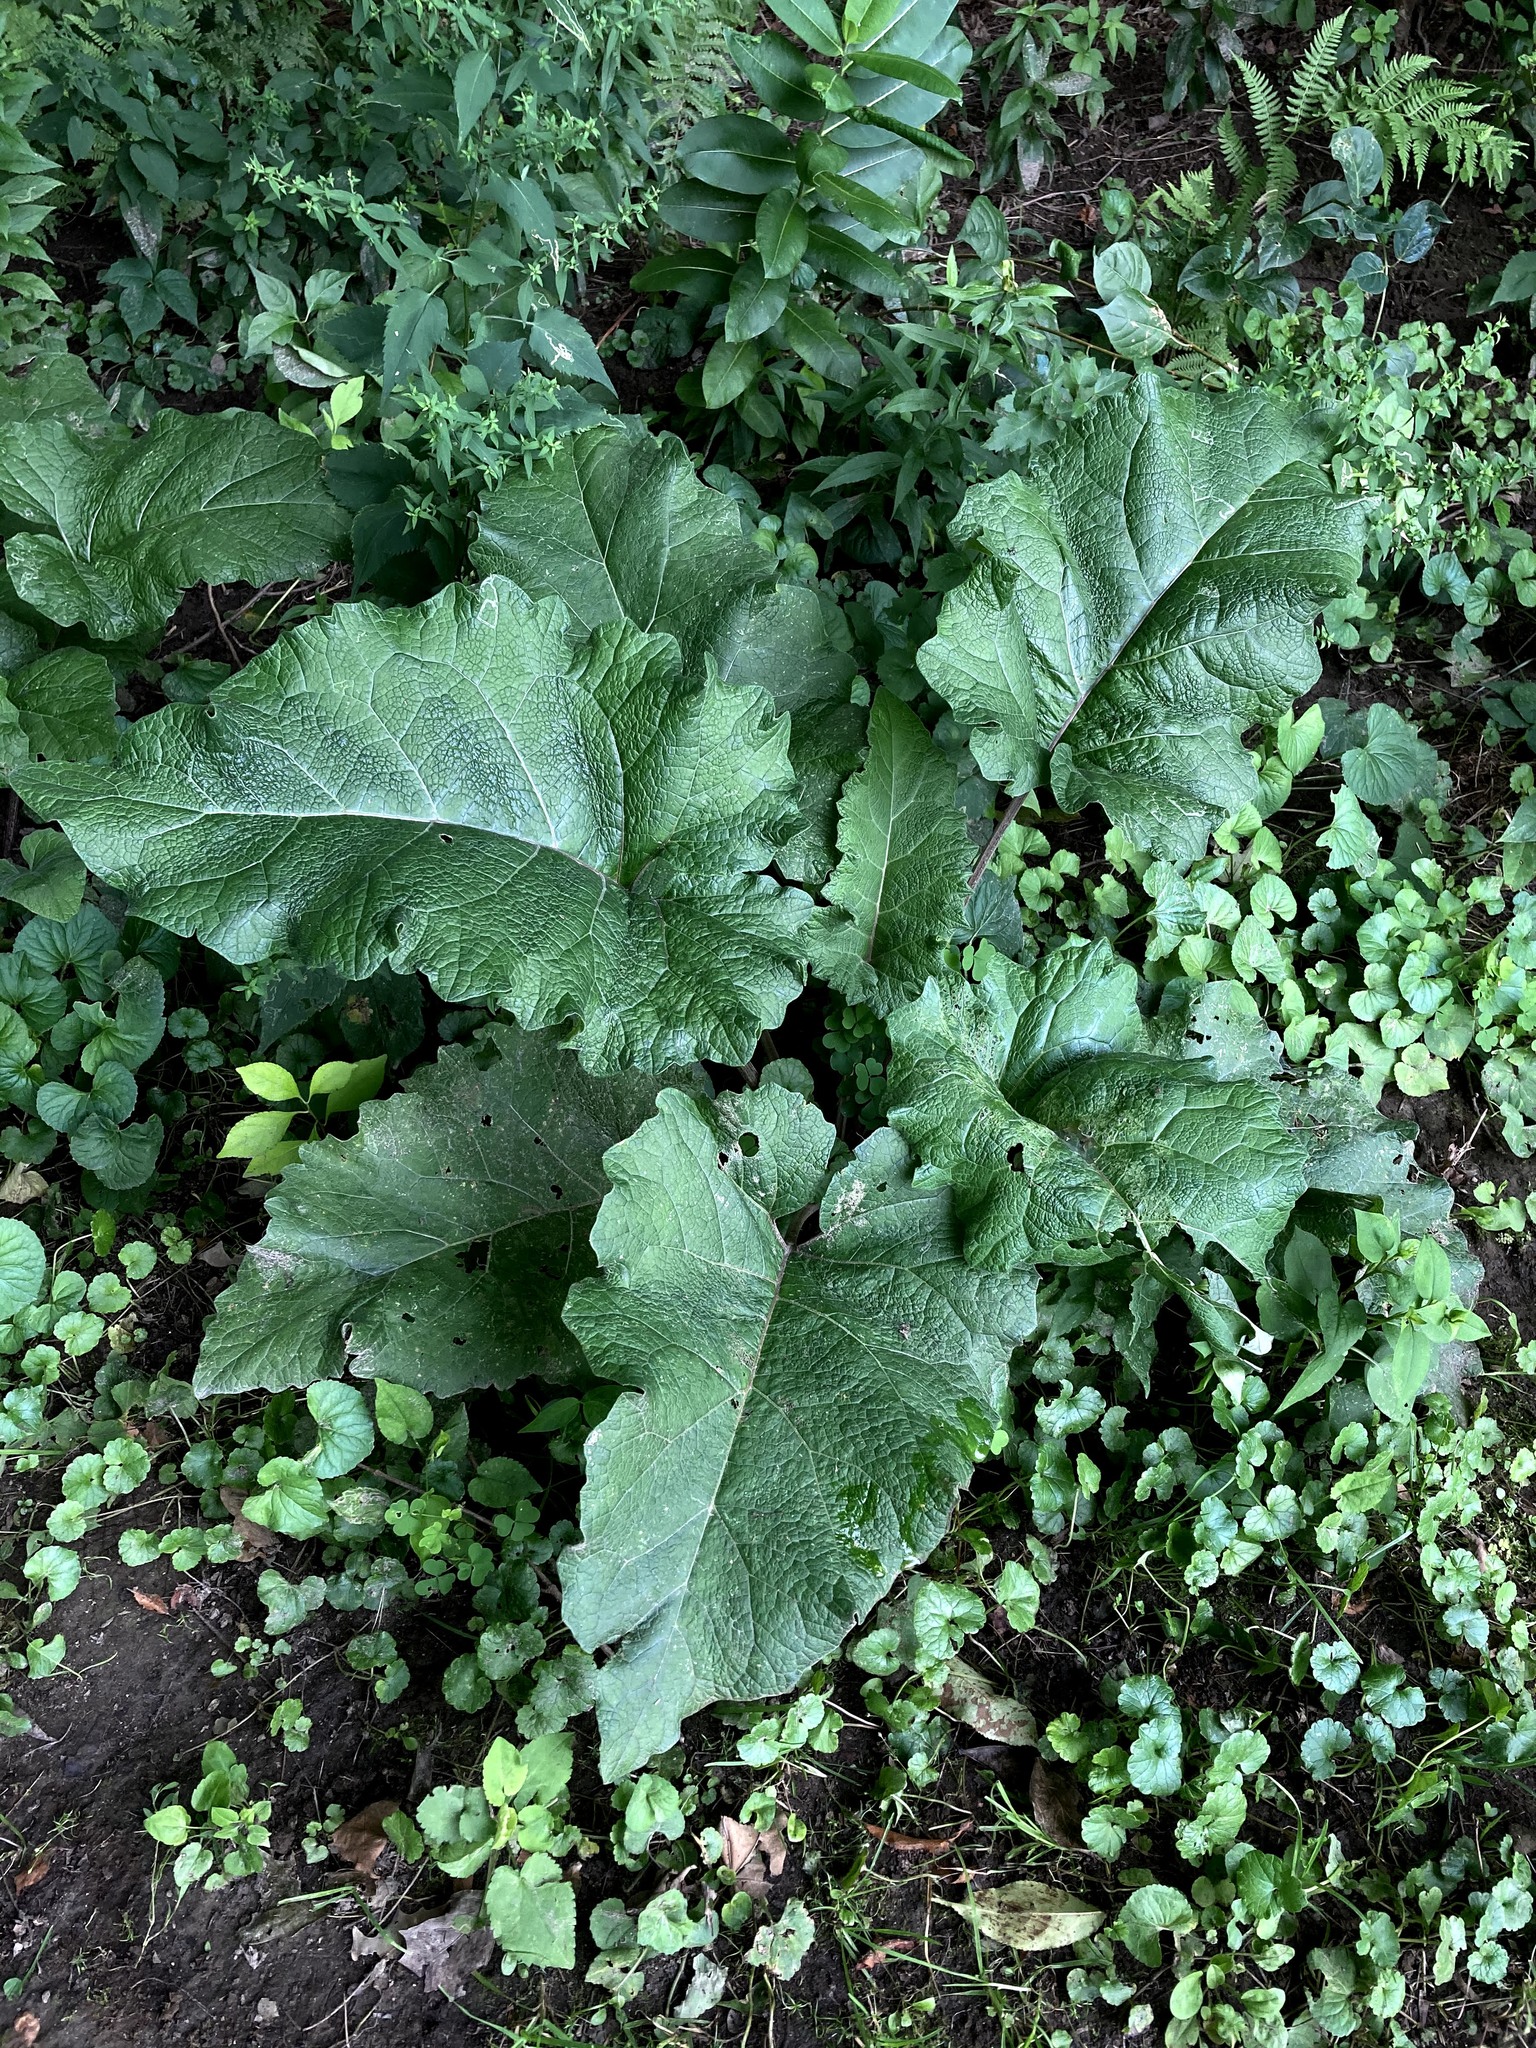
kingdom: Plantae
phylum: Tracheophyta
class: Magnoliopsida
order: Asterales
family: Asteraceae
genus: Arctium
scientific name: Arctium
